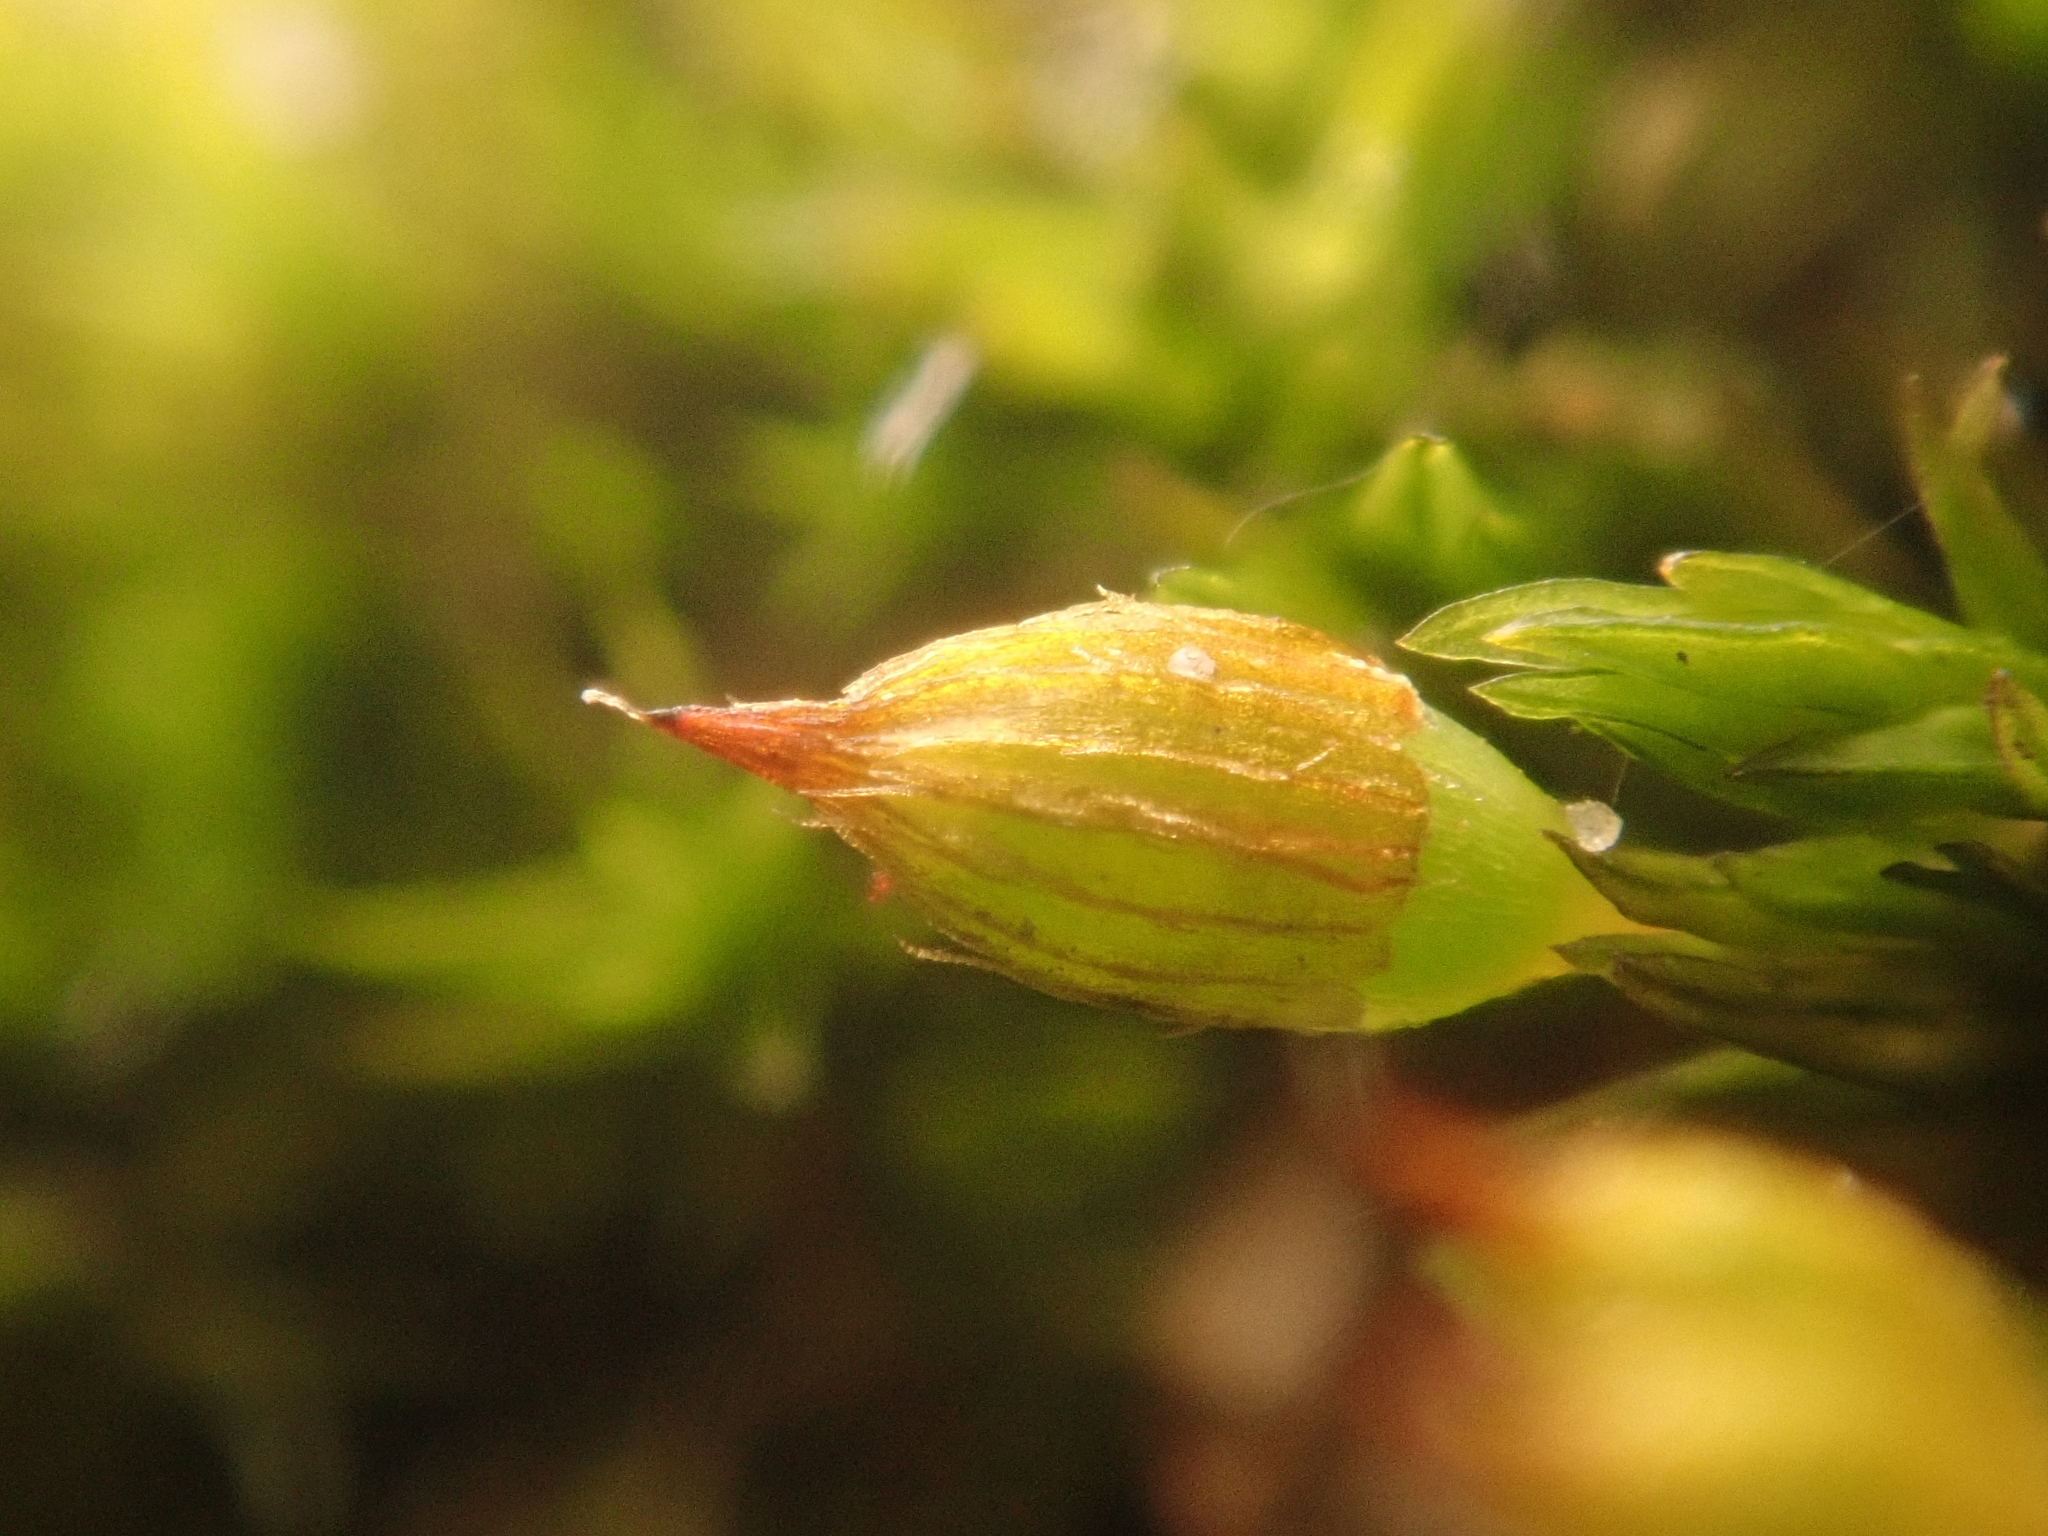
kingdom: Plantae
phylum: Bryophyta
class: Bryopsida
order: Orthotrichales
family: Orthotrichaceae
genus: Orthotrichum
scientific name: Orthotrichum anomalum
